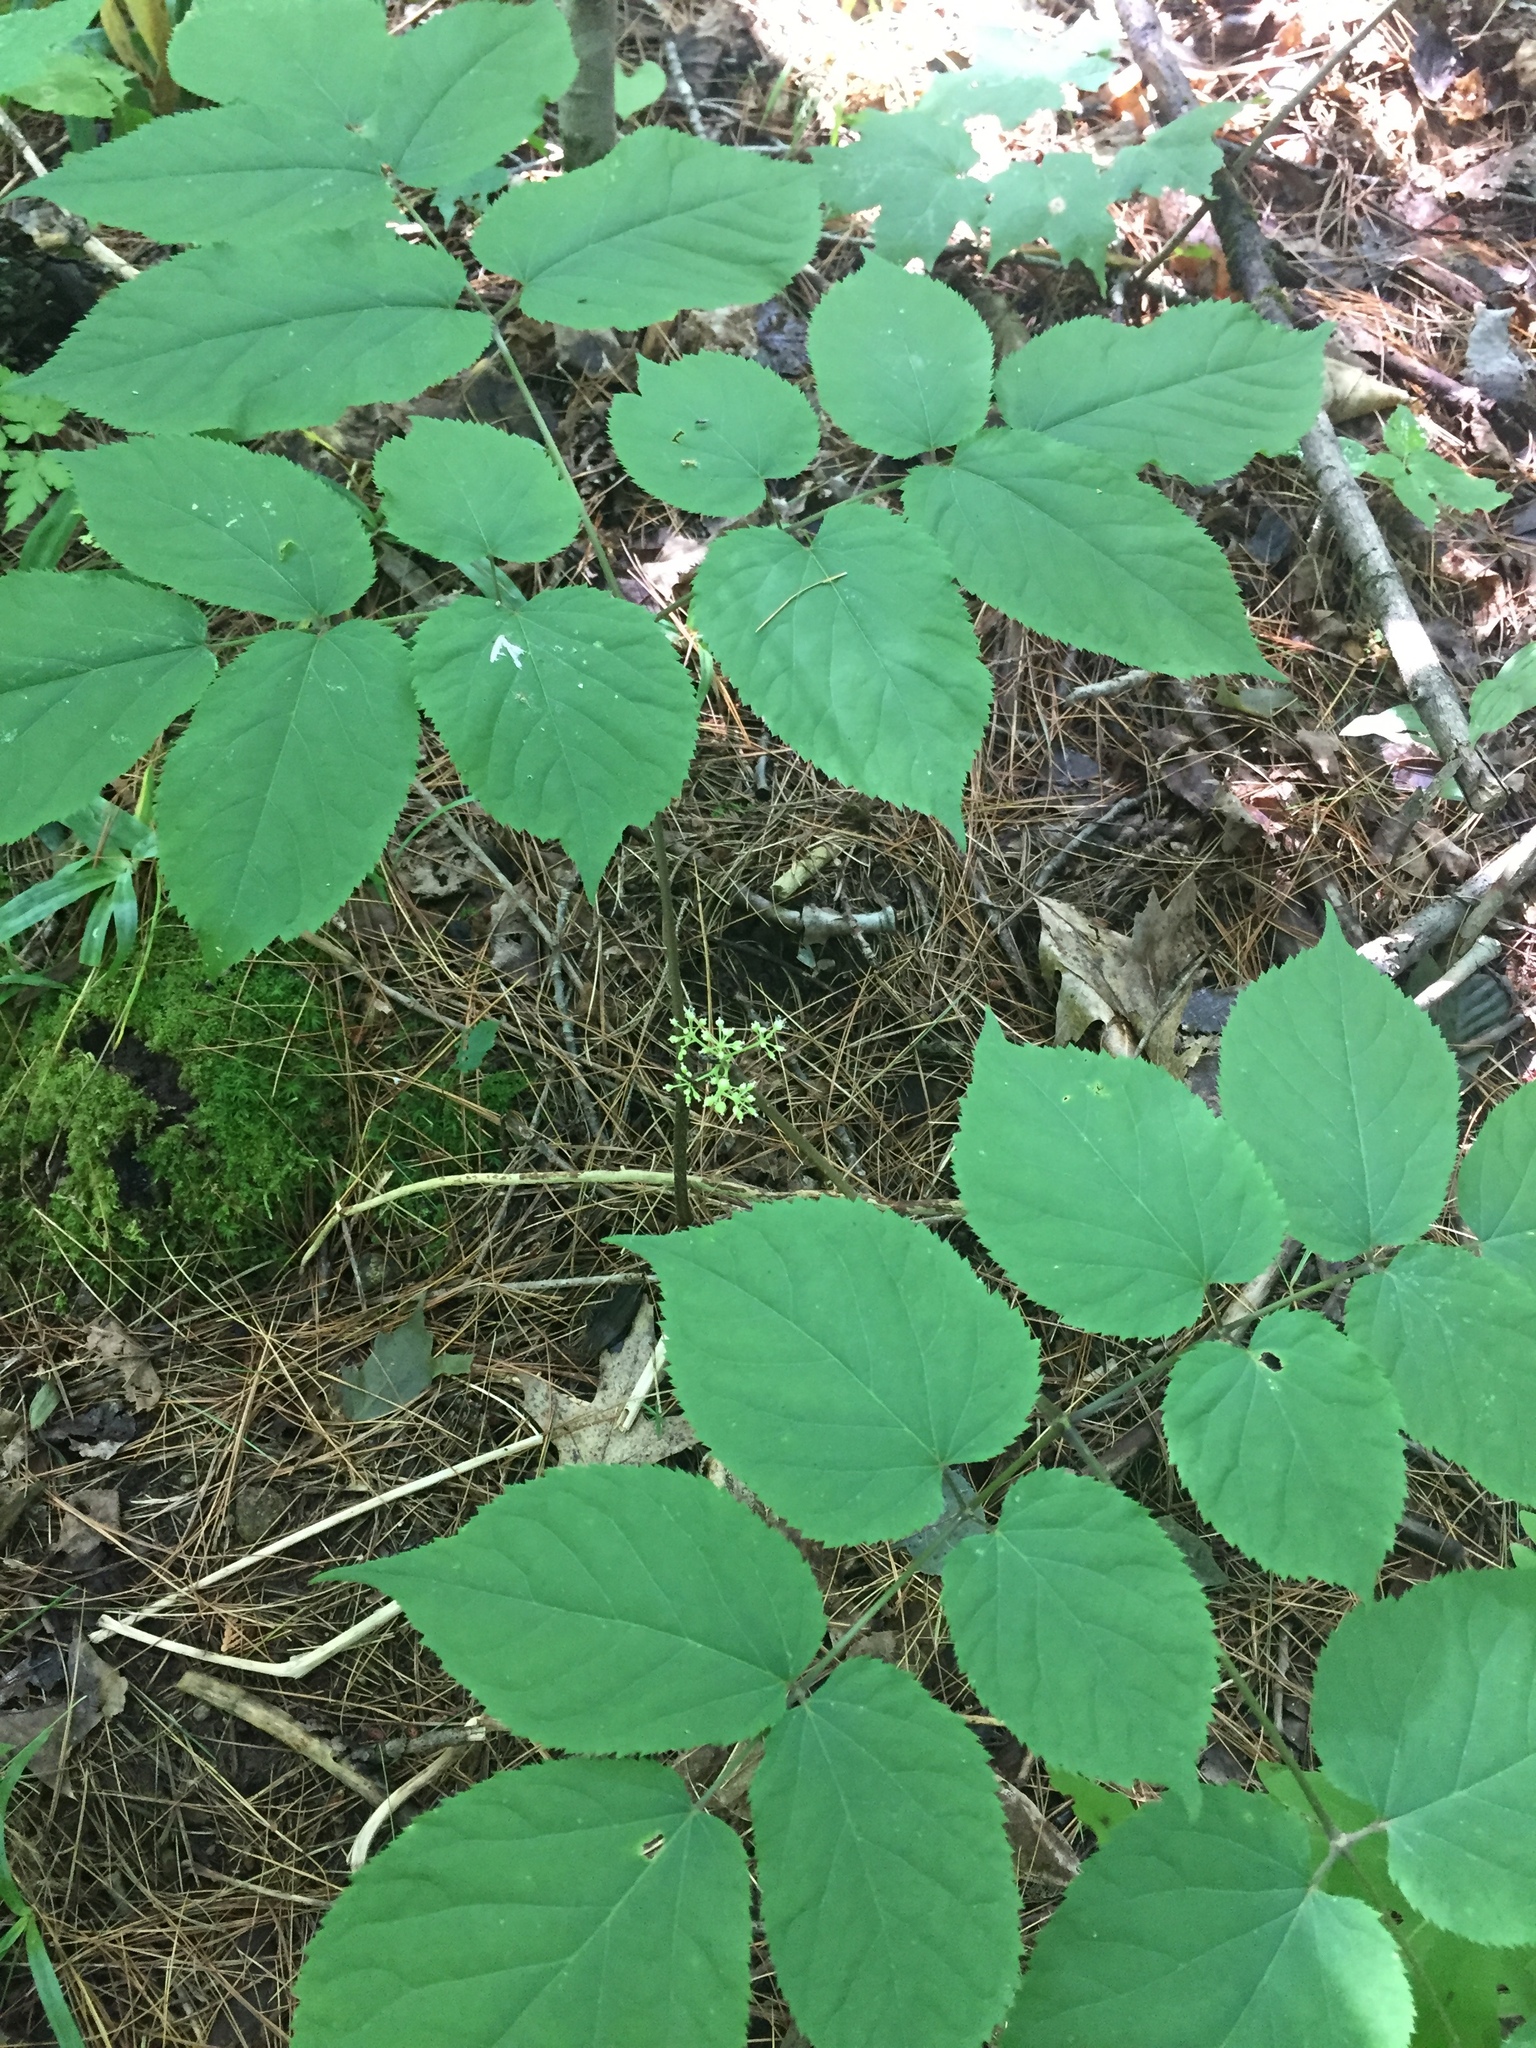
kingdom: Plantae
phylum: Tracheophyta
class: Magnoliopsida
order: Apiales
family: Araliaceae
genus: Aralia
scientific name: Aralia racemosa
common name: American-spikenard
